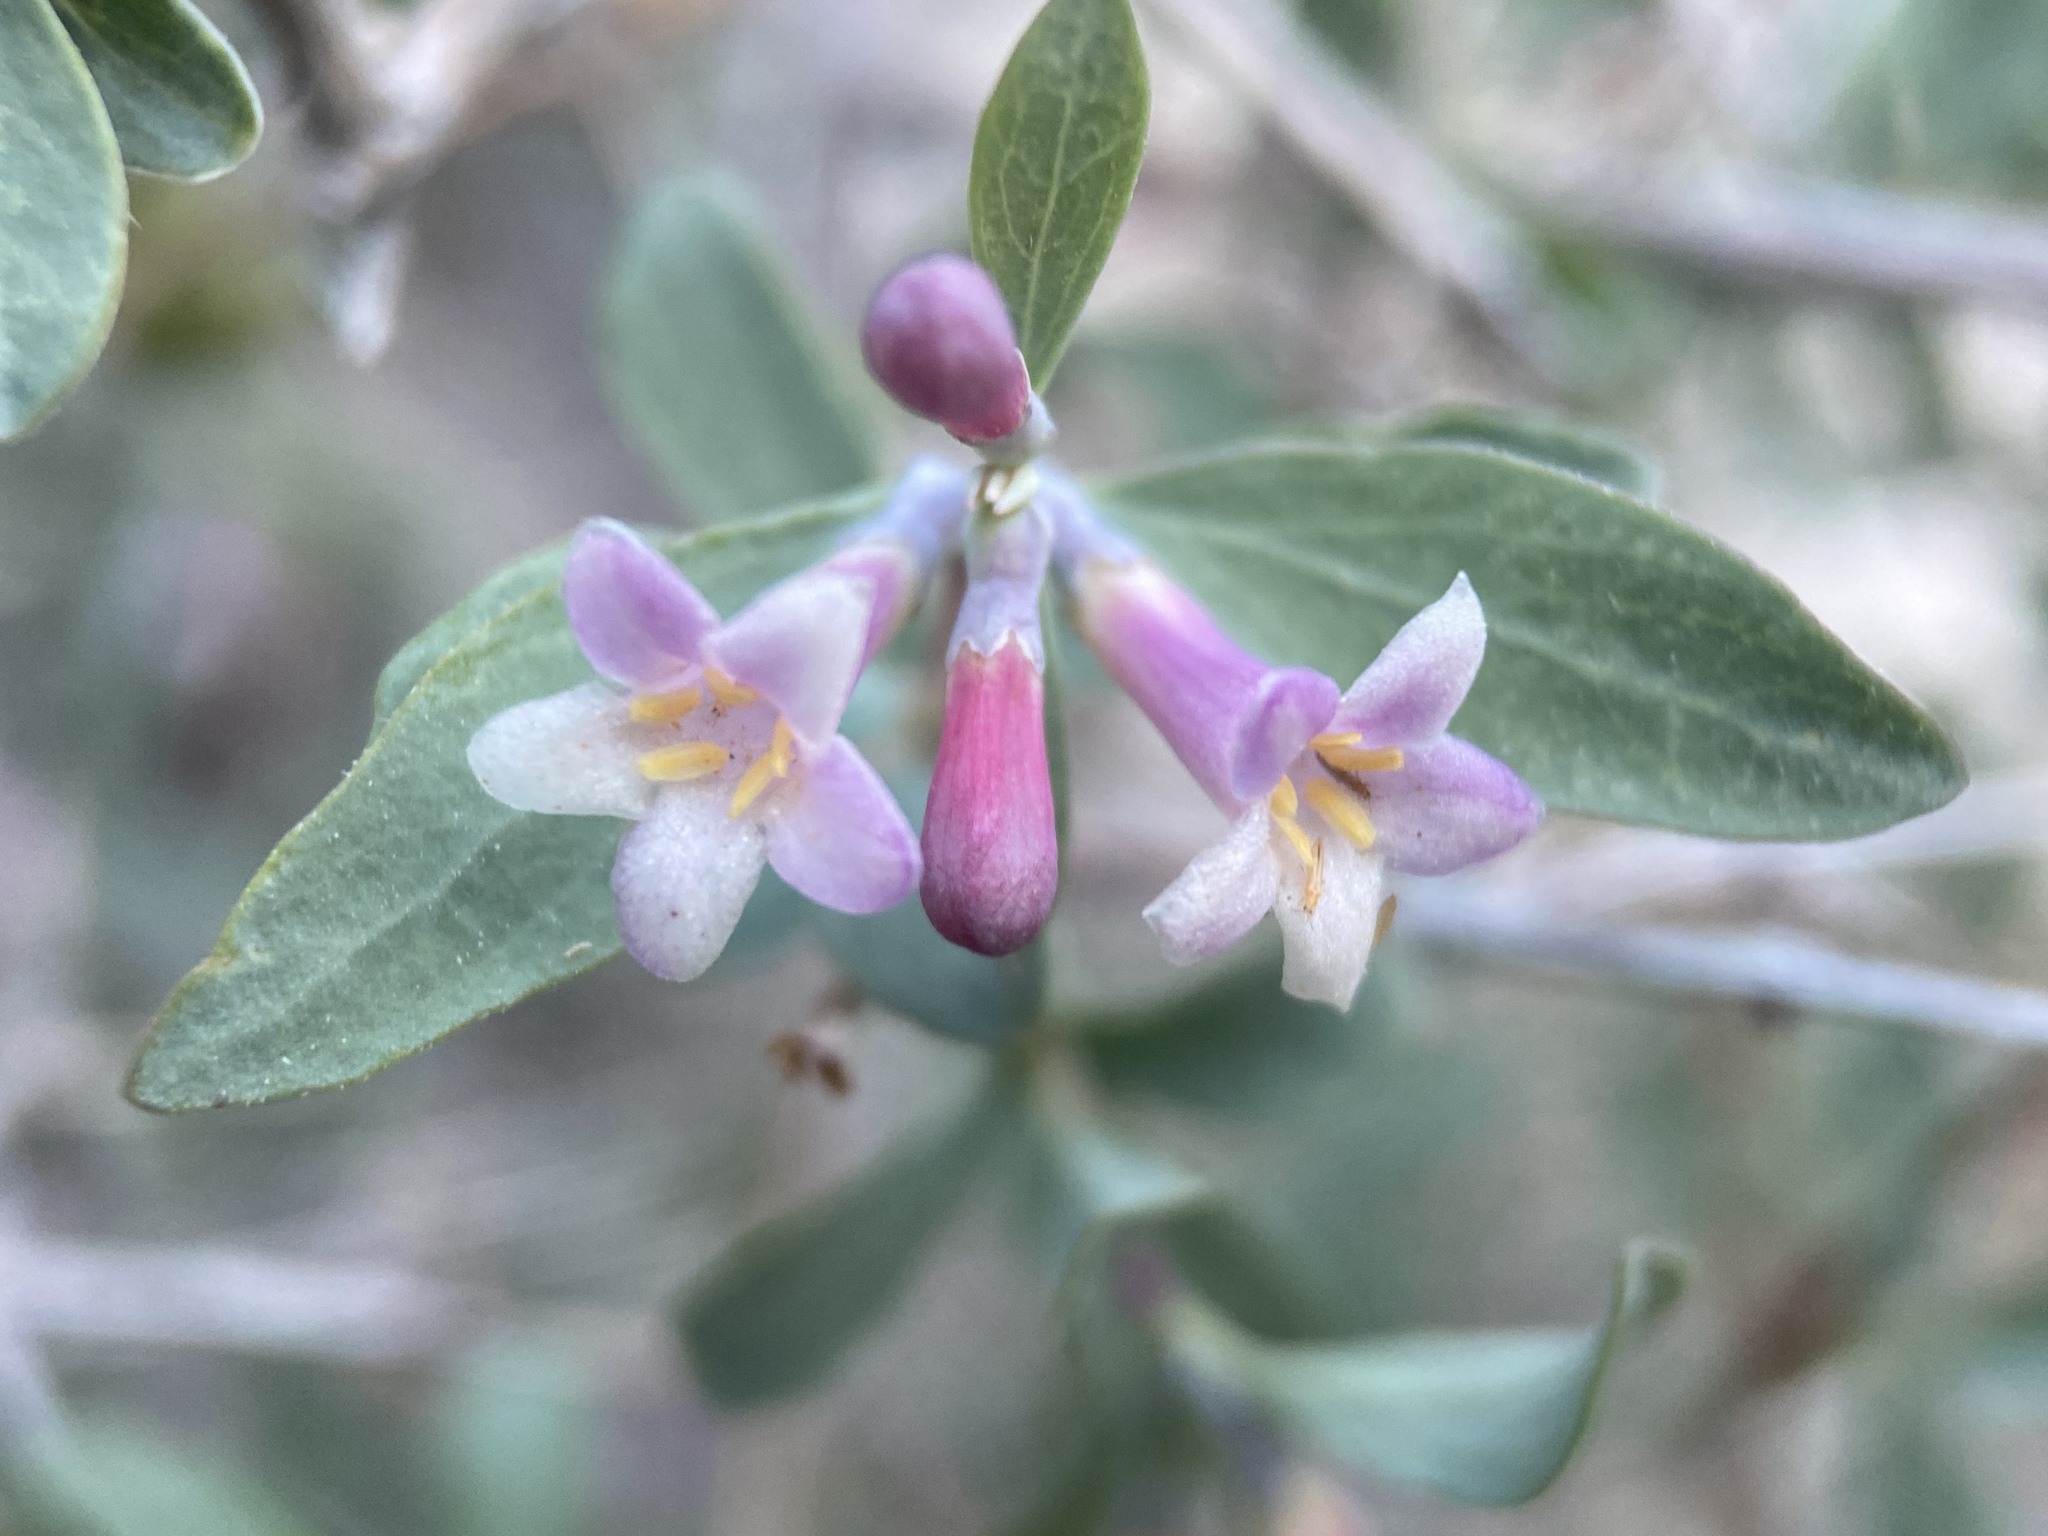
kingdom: Plantae
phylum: Tracheophyta
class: Magnoliopsida
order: Dipsacales
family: Caprifoliaceae
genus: Symphoricarpos
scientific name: Symphoricarpos longiflorus
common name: Fragrant snowberry
